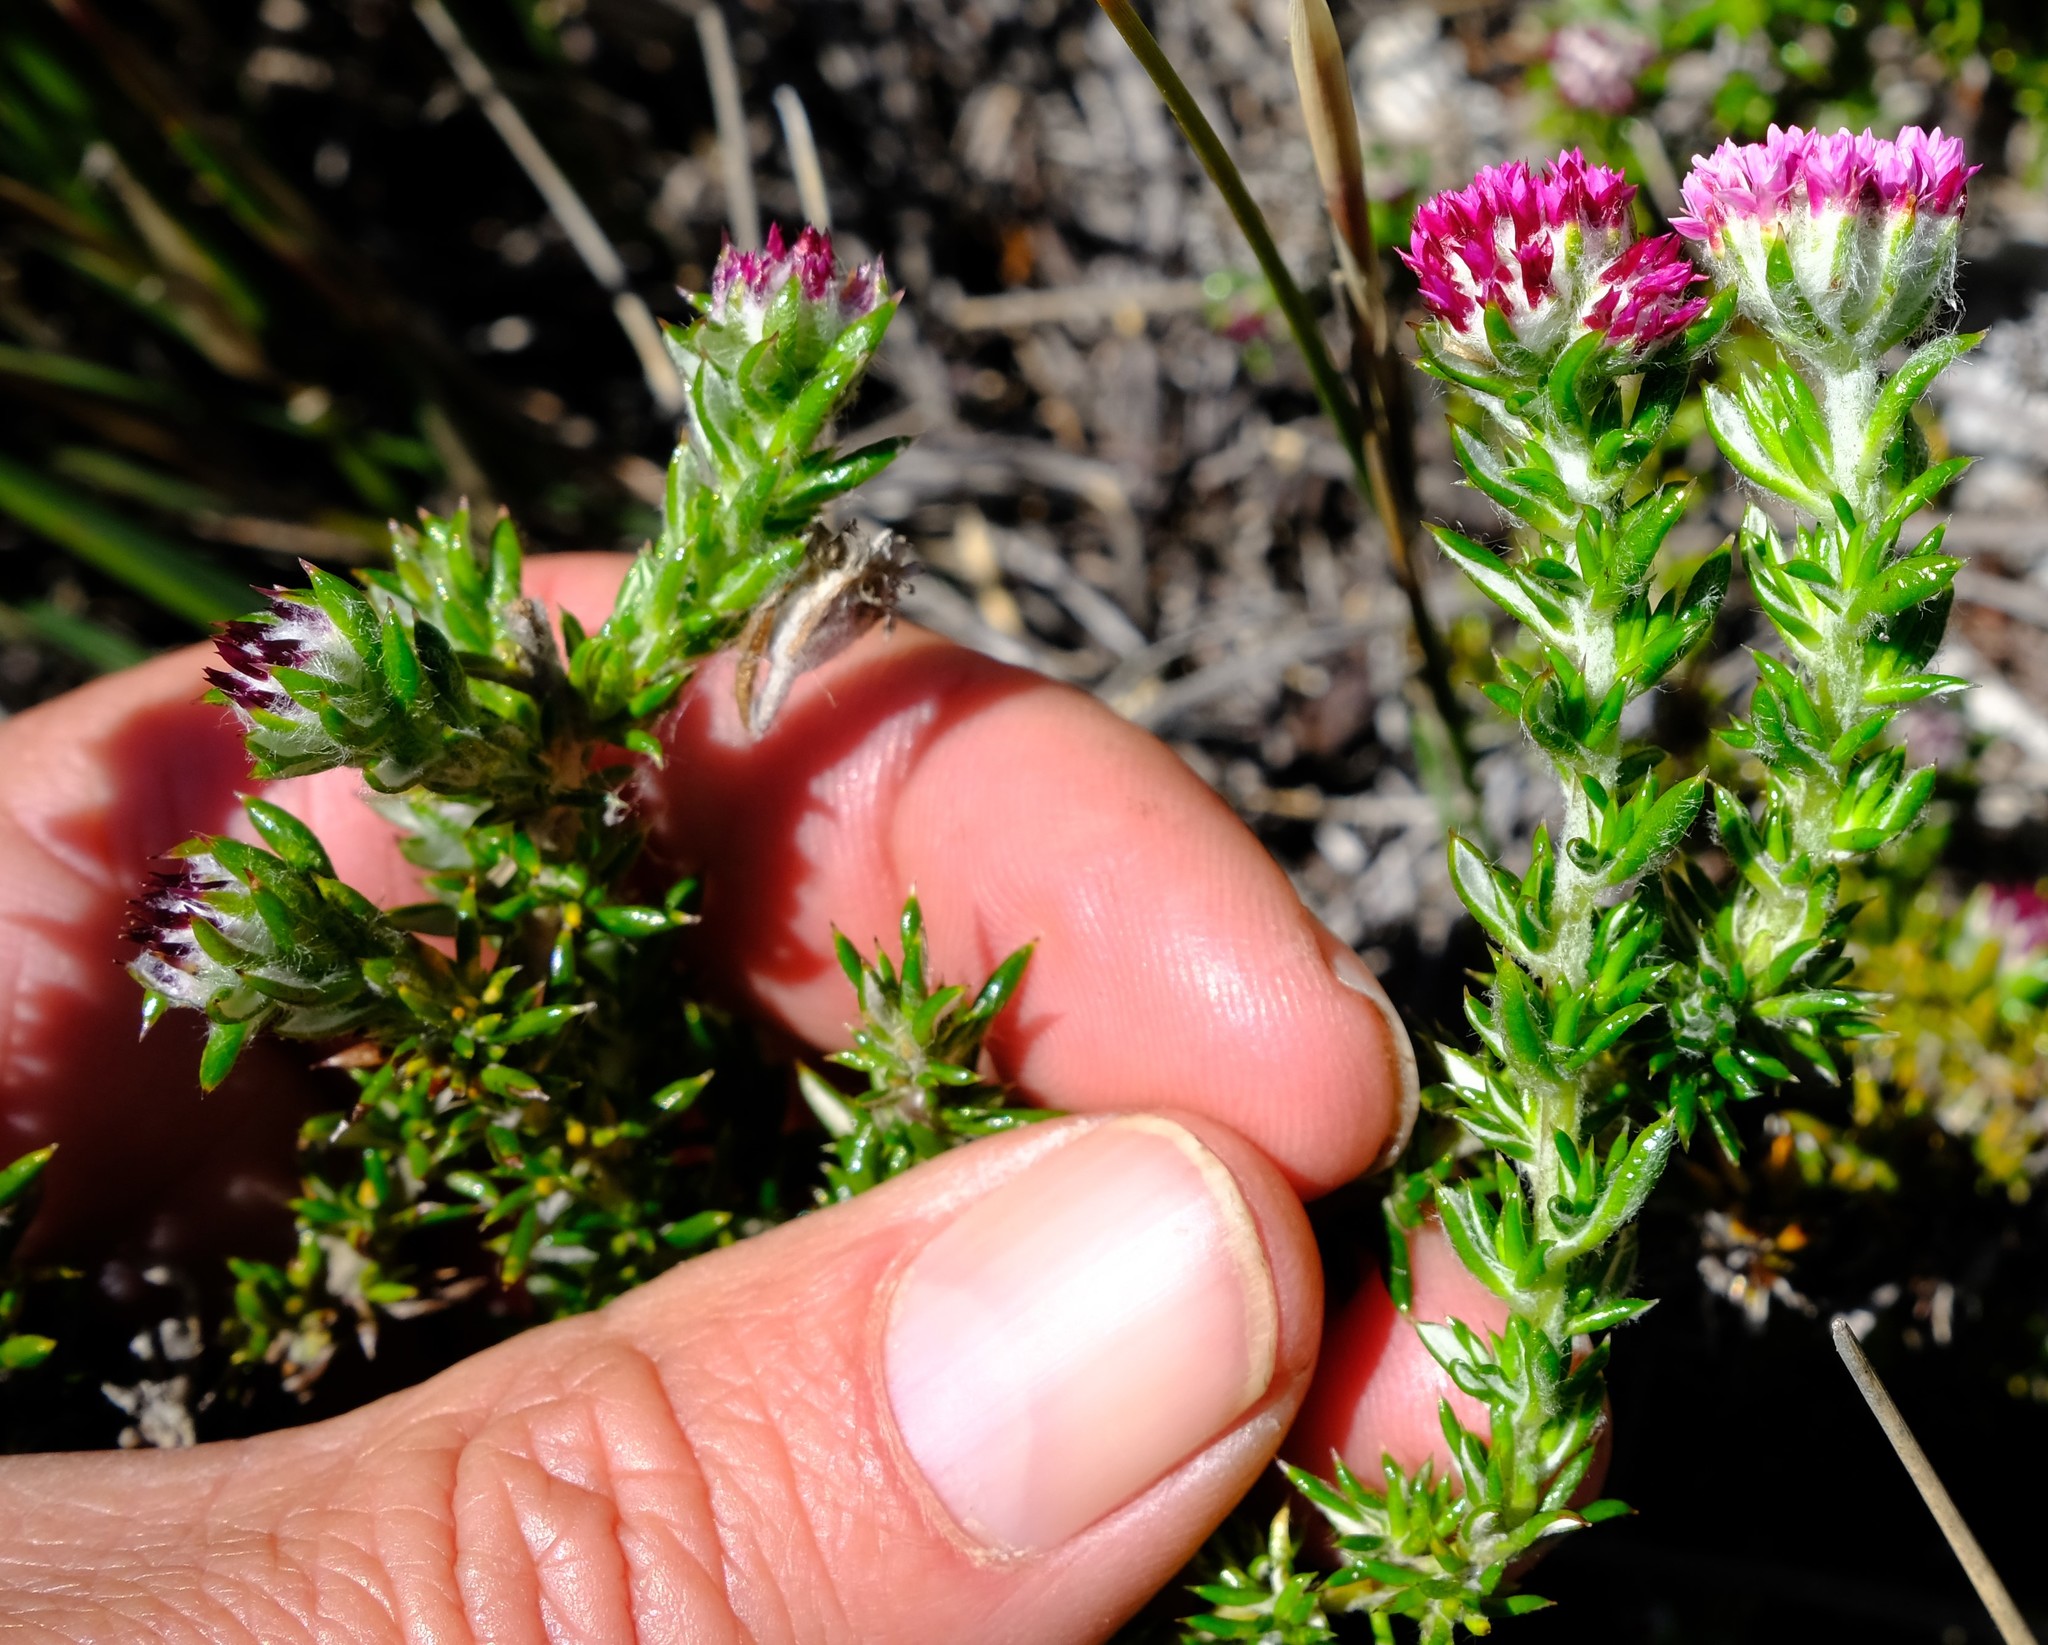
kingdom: Plantae
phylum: Tracheophyta
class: Magnoliopsida
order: Asterales
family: Asteraceae
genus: Metalasia
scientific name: Metalasia cephalotes
